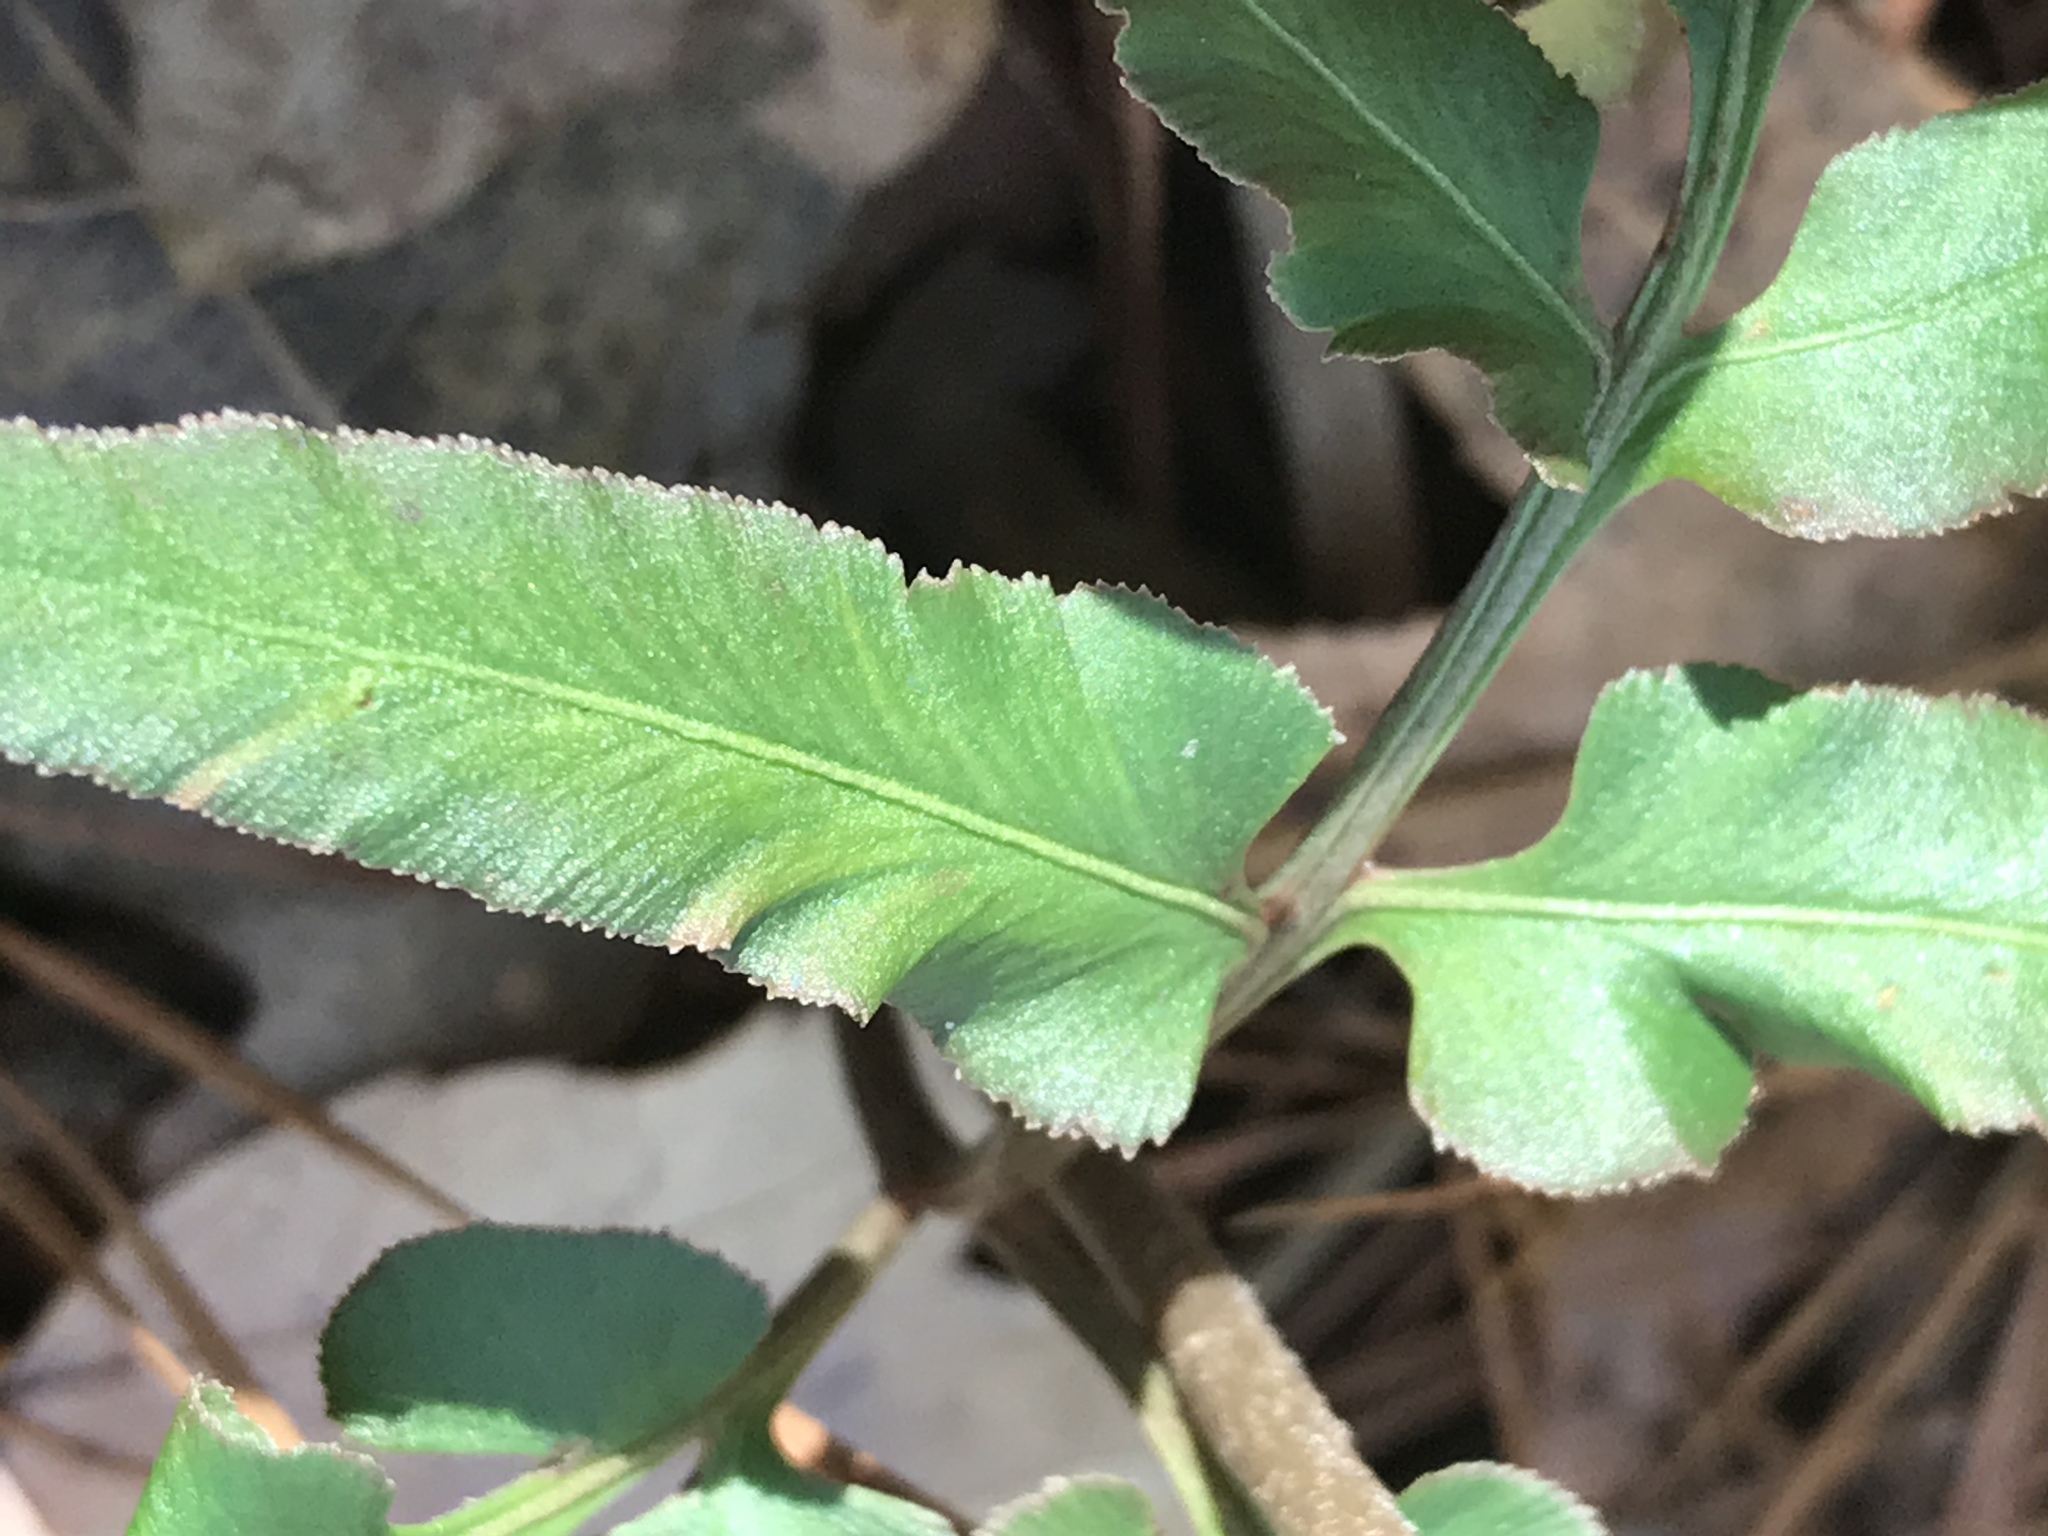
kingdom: Plantae
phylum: Tracheophyta
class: Polypodiopsida
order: Ophioglossales
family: Ophioglossaceae
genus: Sceptridium
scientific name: Sceptridium biternatum
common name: Sparse-lobed grapefern
